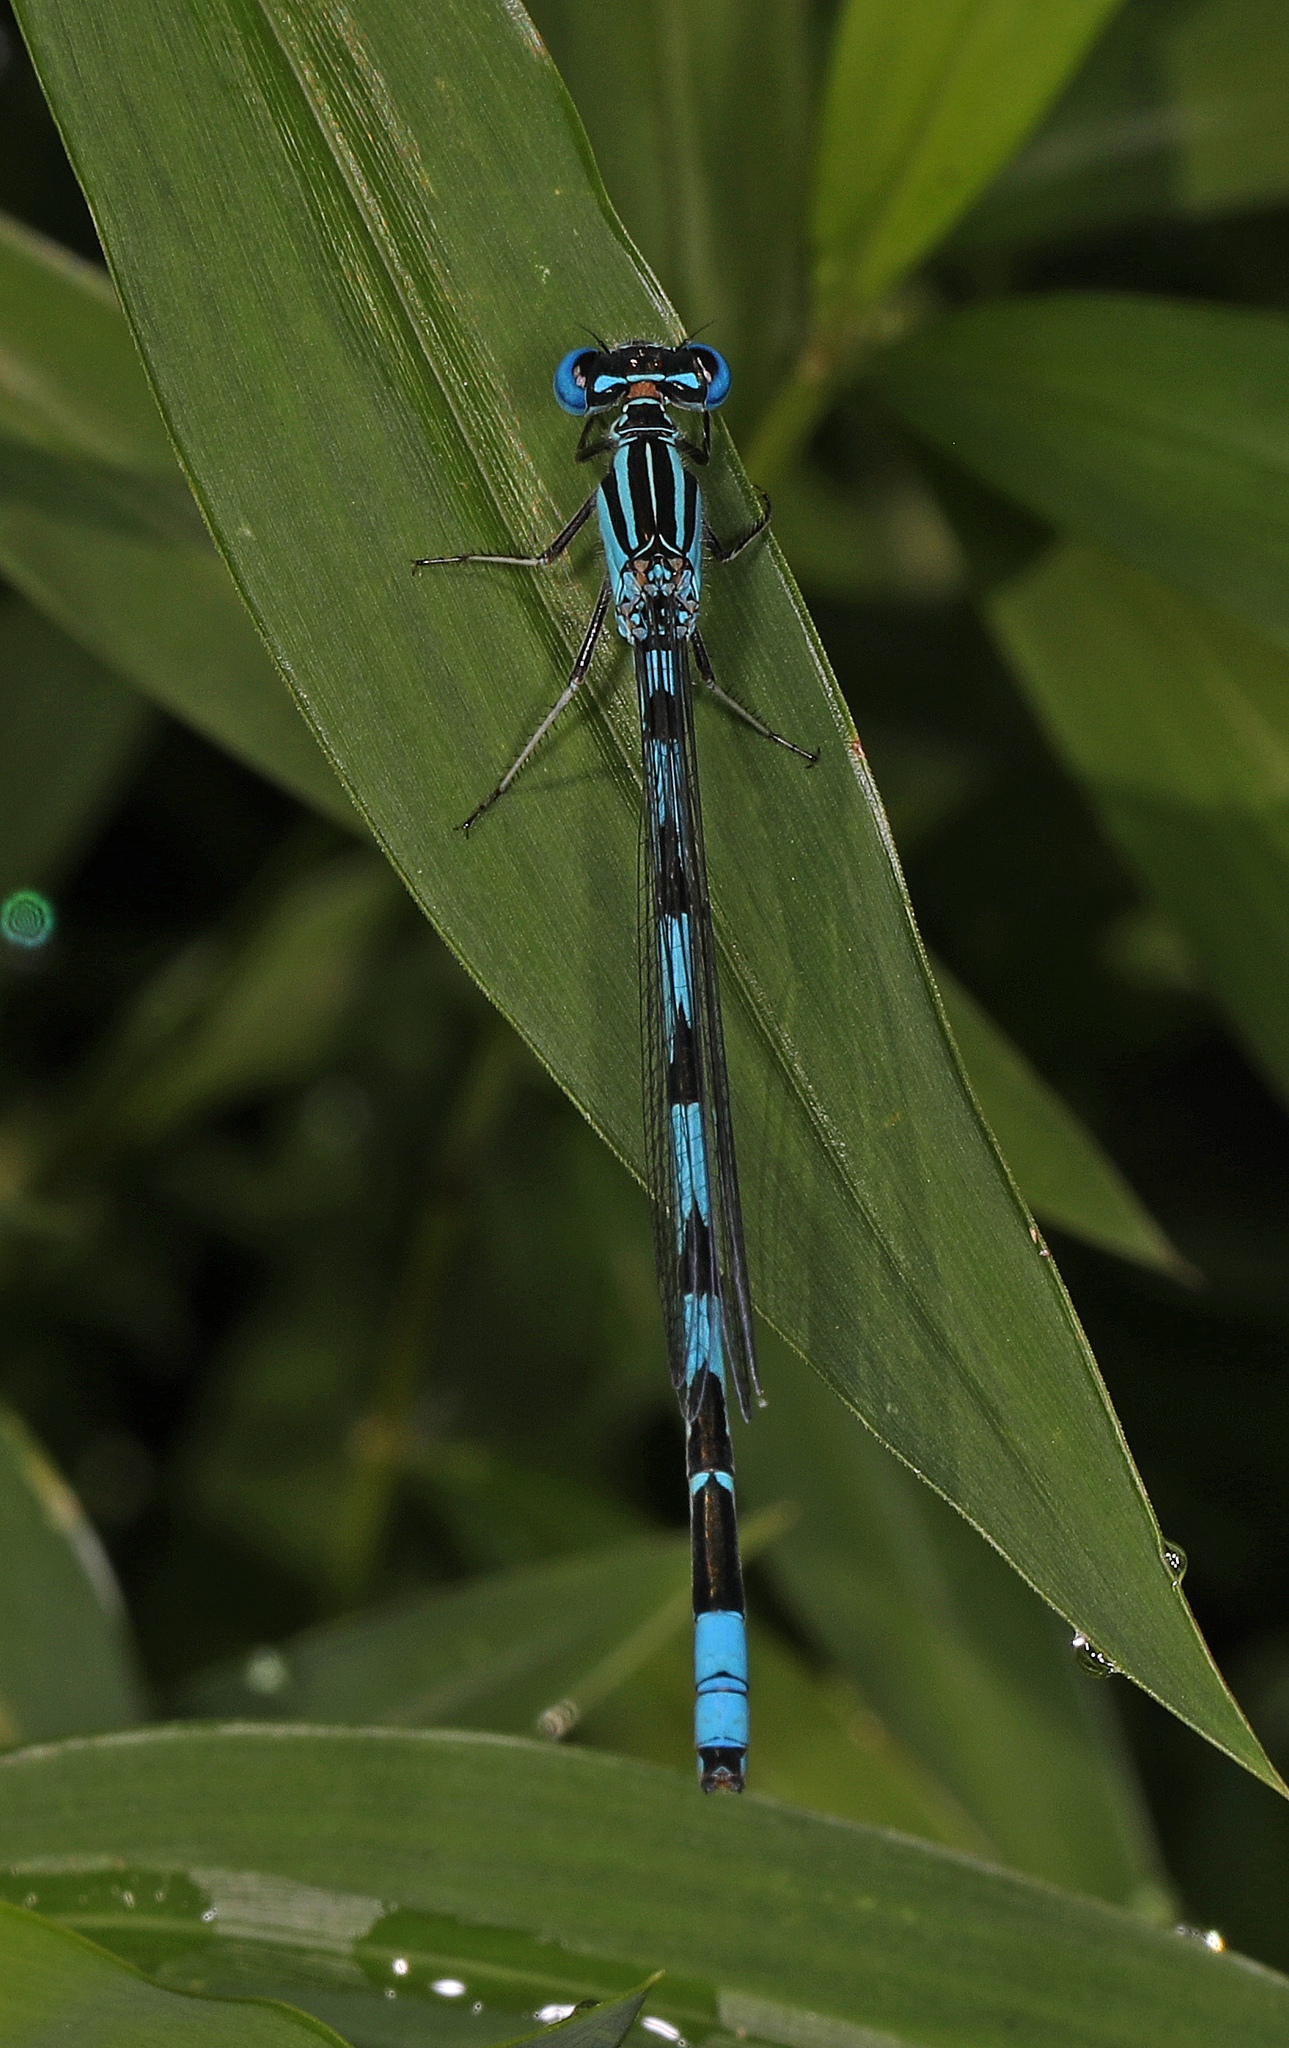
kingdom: Animalia
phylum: Arthropoda
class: Insecta
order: Odonata
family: Coenagrionidae
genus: Enallagma
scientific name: Enallagma durum
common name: Big bluet
